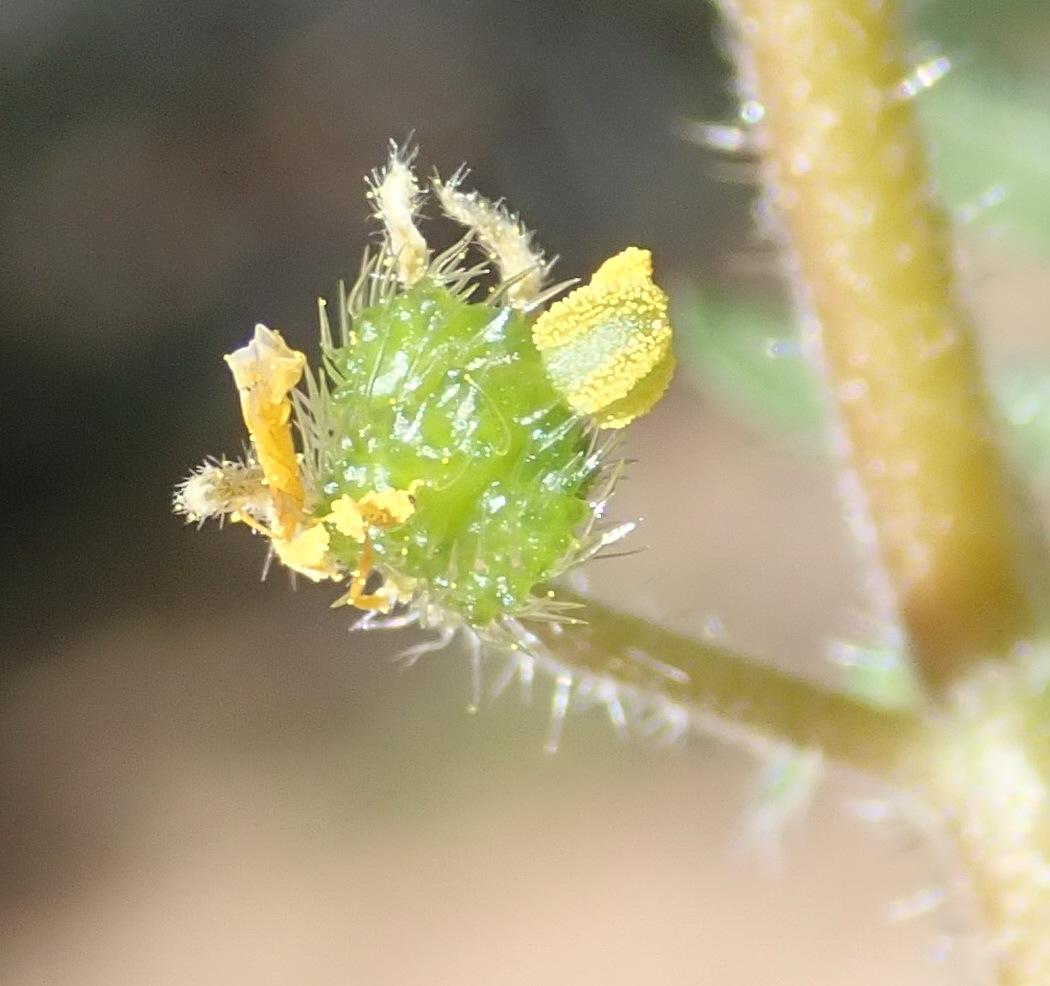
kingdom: Plantae
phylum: Tracheophyta
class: Magnoliopsida
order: Zygophyllales
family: Zygophyllaceae
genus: Tribulus
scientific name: Tribulus terrestris
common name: Puncturevine
